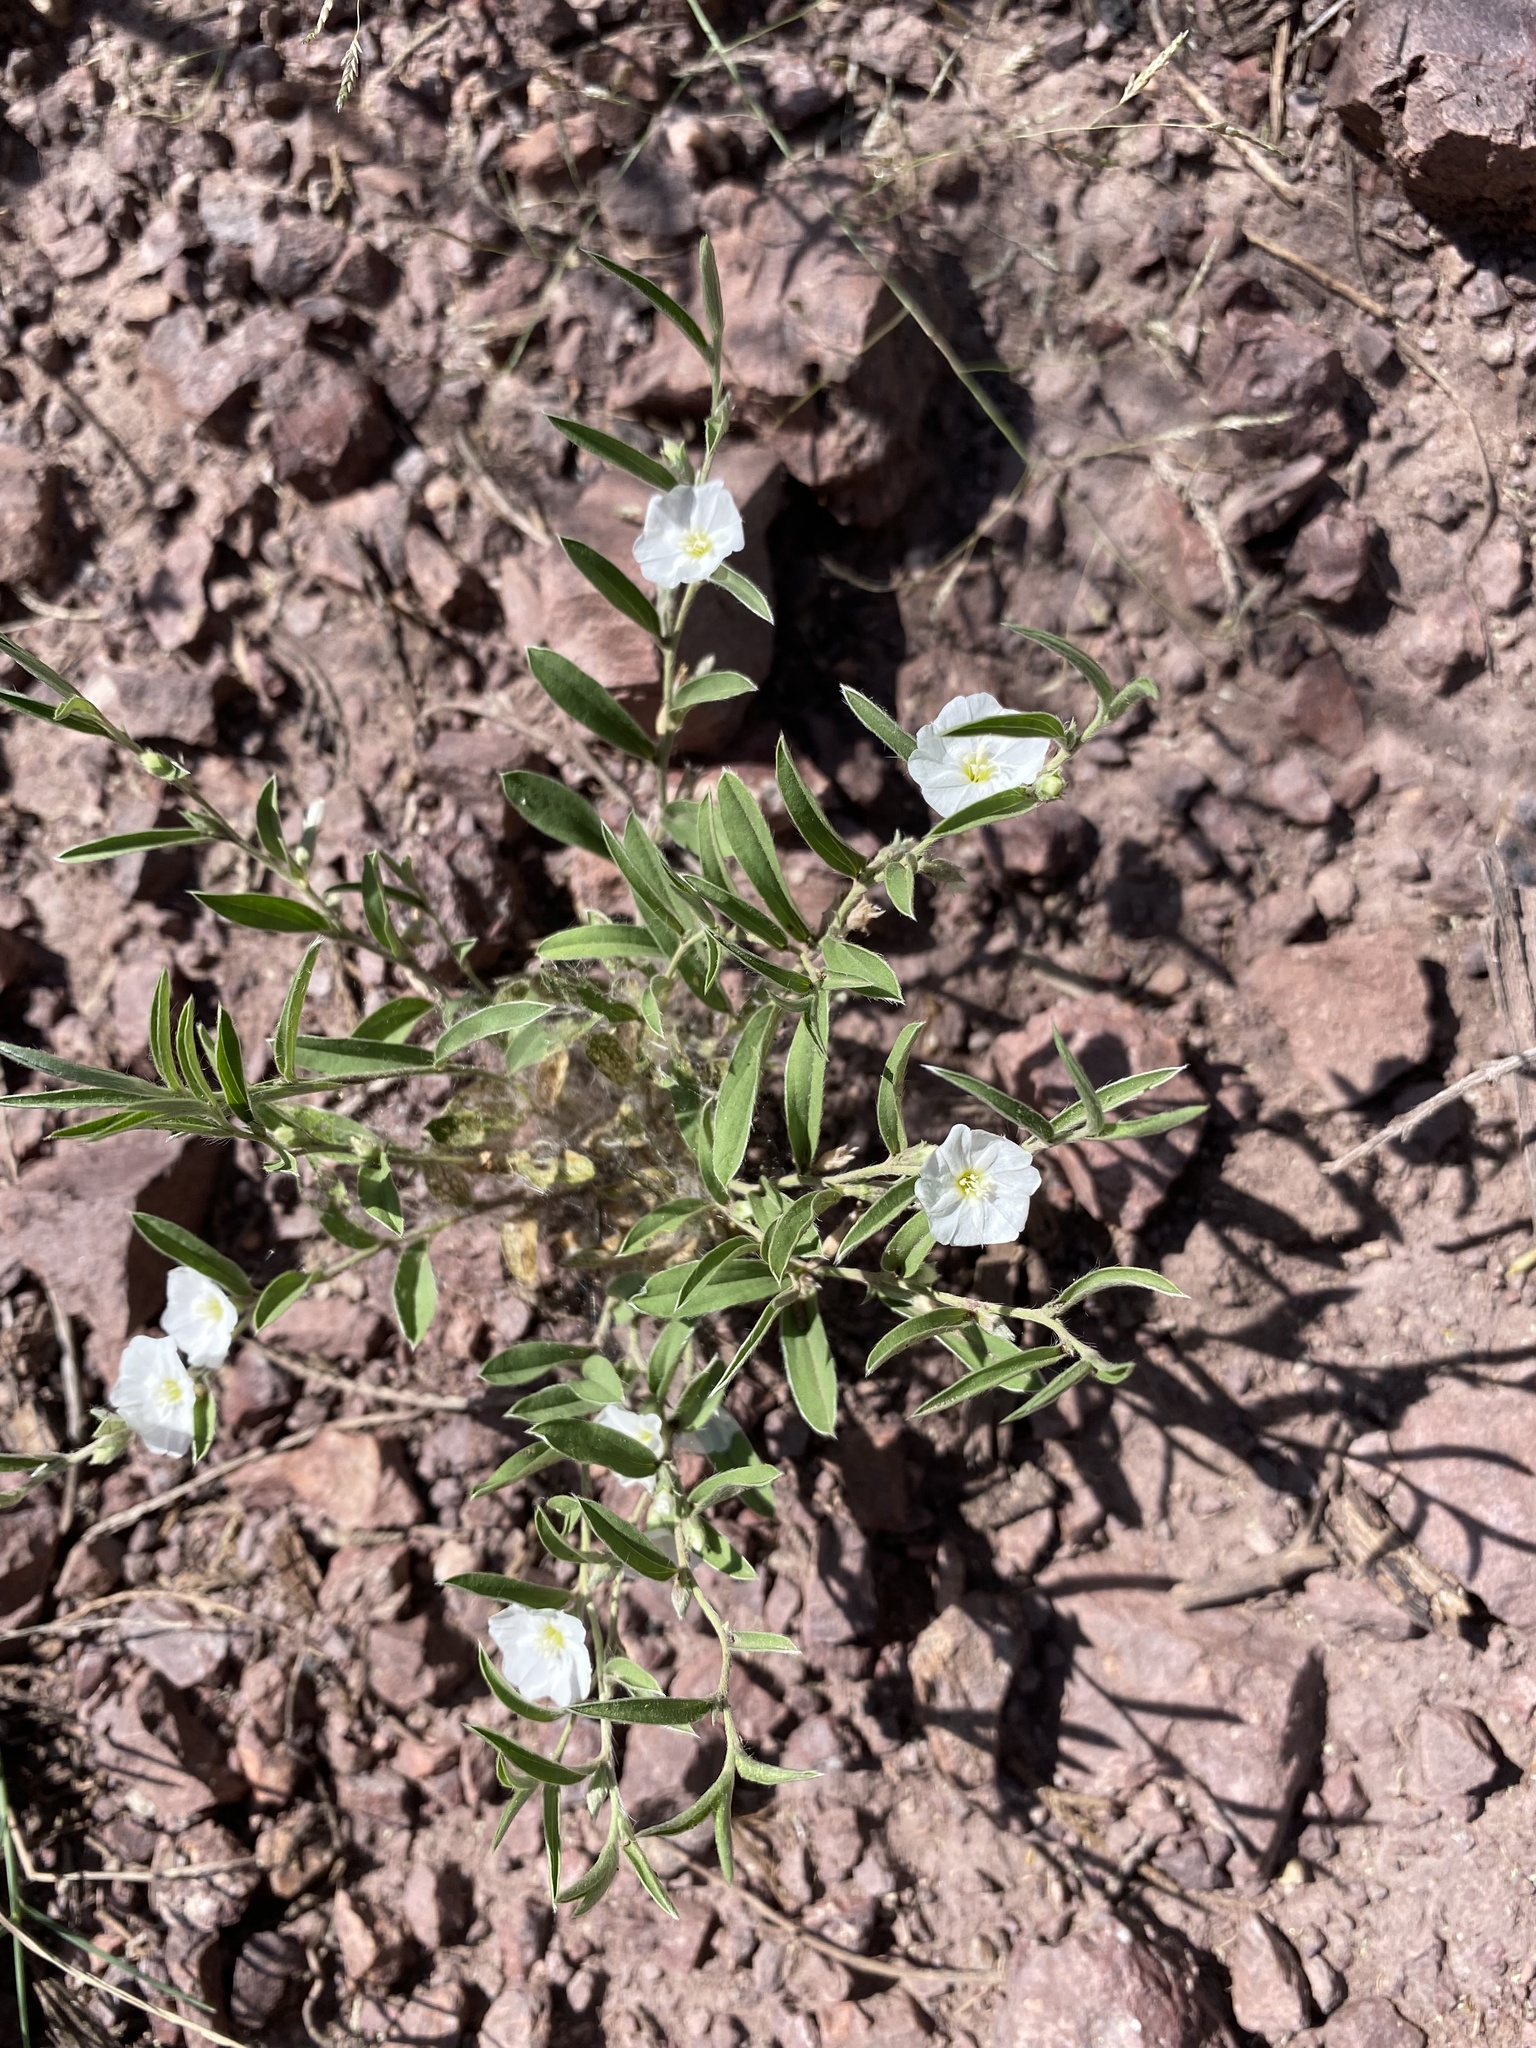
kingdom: Plantae
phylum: Tracheophyta
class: Magnoliopsida
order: Solanales
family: Convolvulaceae
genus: Evolvulus
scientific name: Evolvulus sericeus
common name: Blue dots
